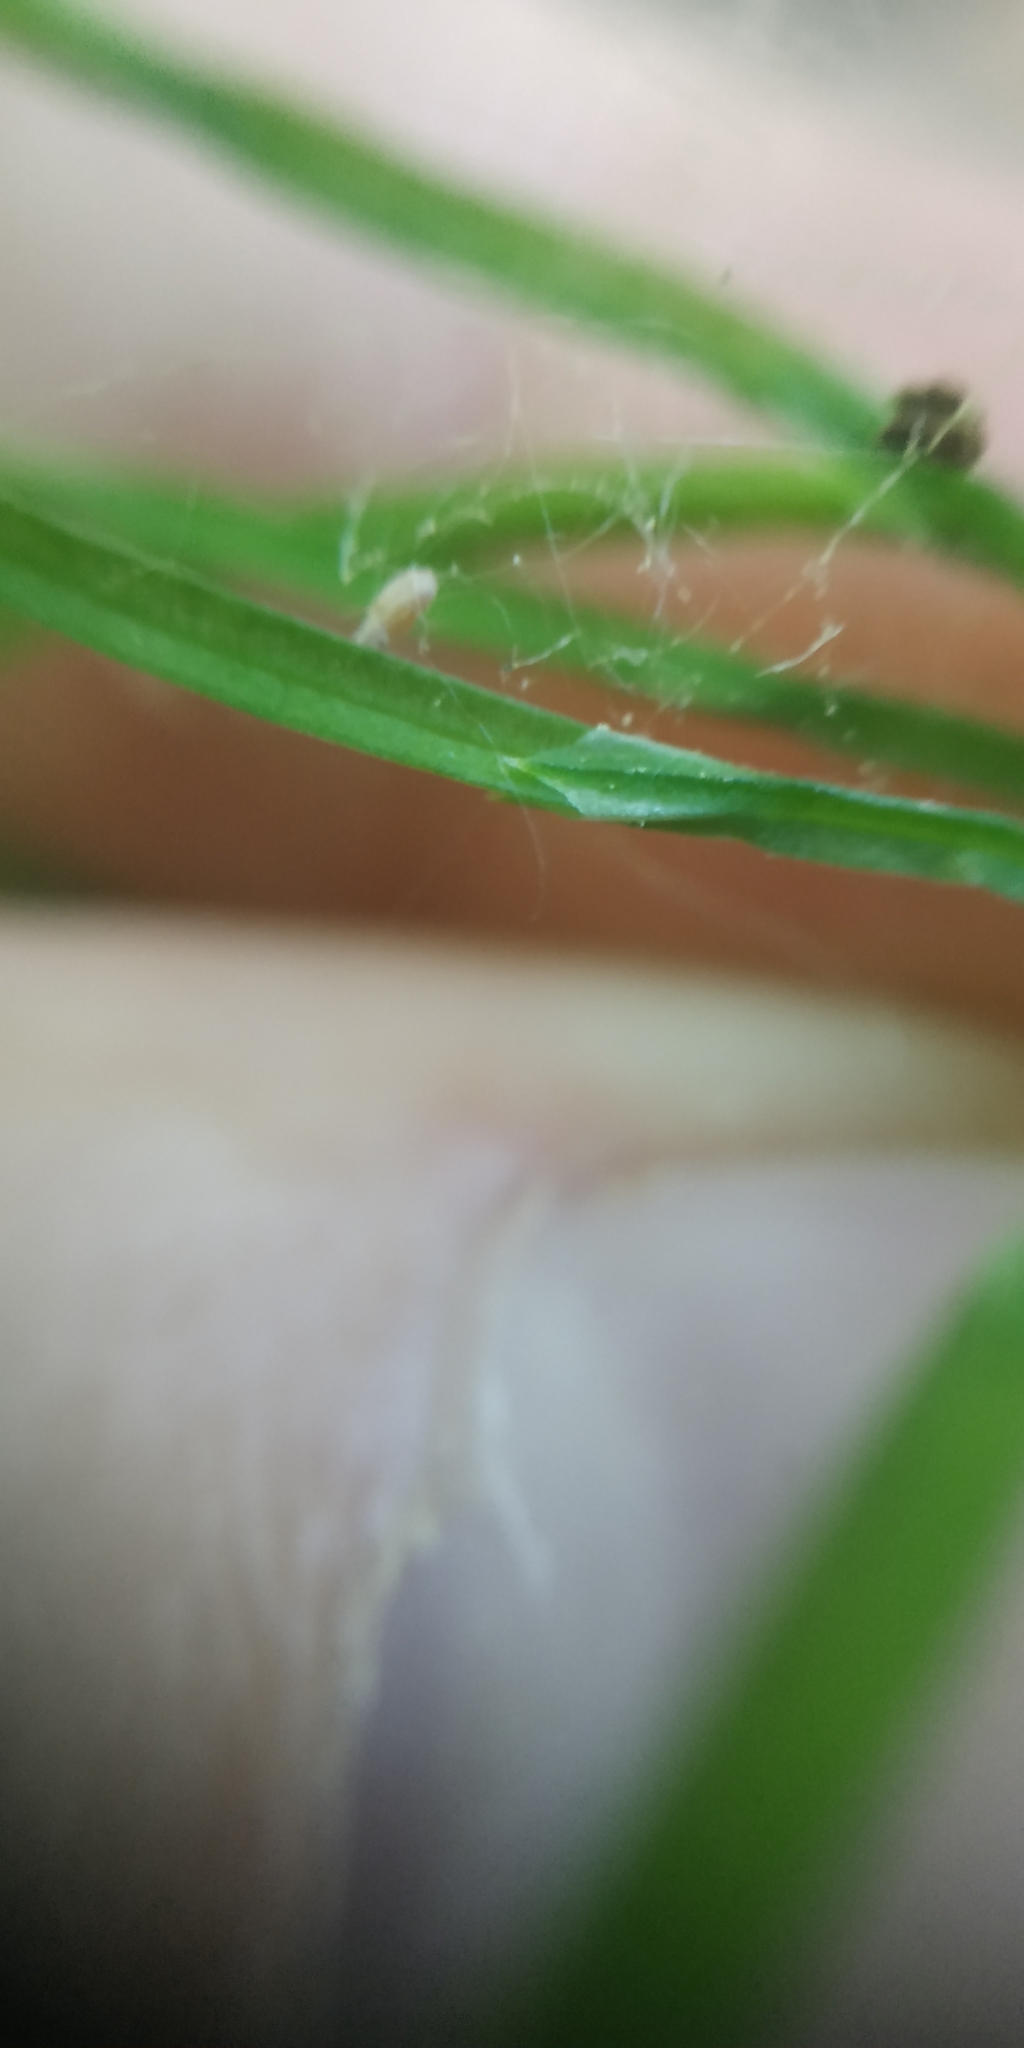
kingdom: Plantae
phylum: Tracheophyta
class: Polypodiopsida
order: Equisetales
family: Equisetaceae
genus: Equisetum
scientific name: Equisetum arvense
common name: Field horsetail
